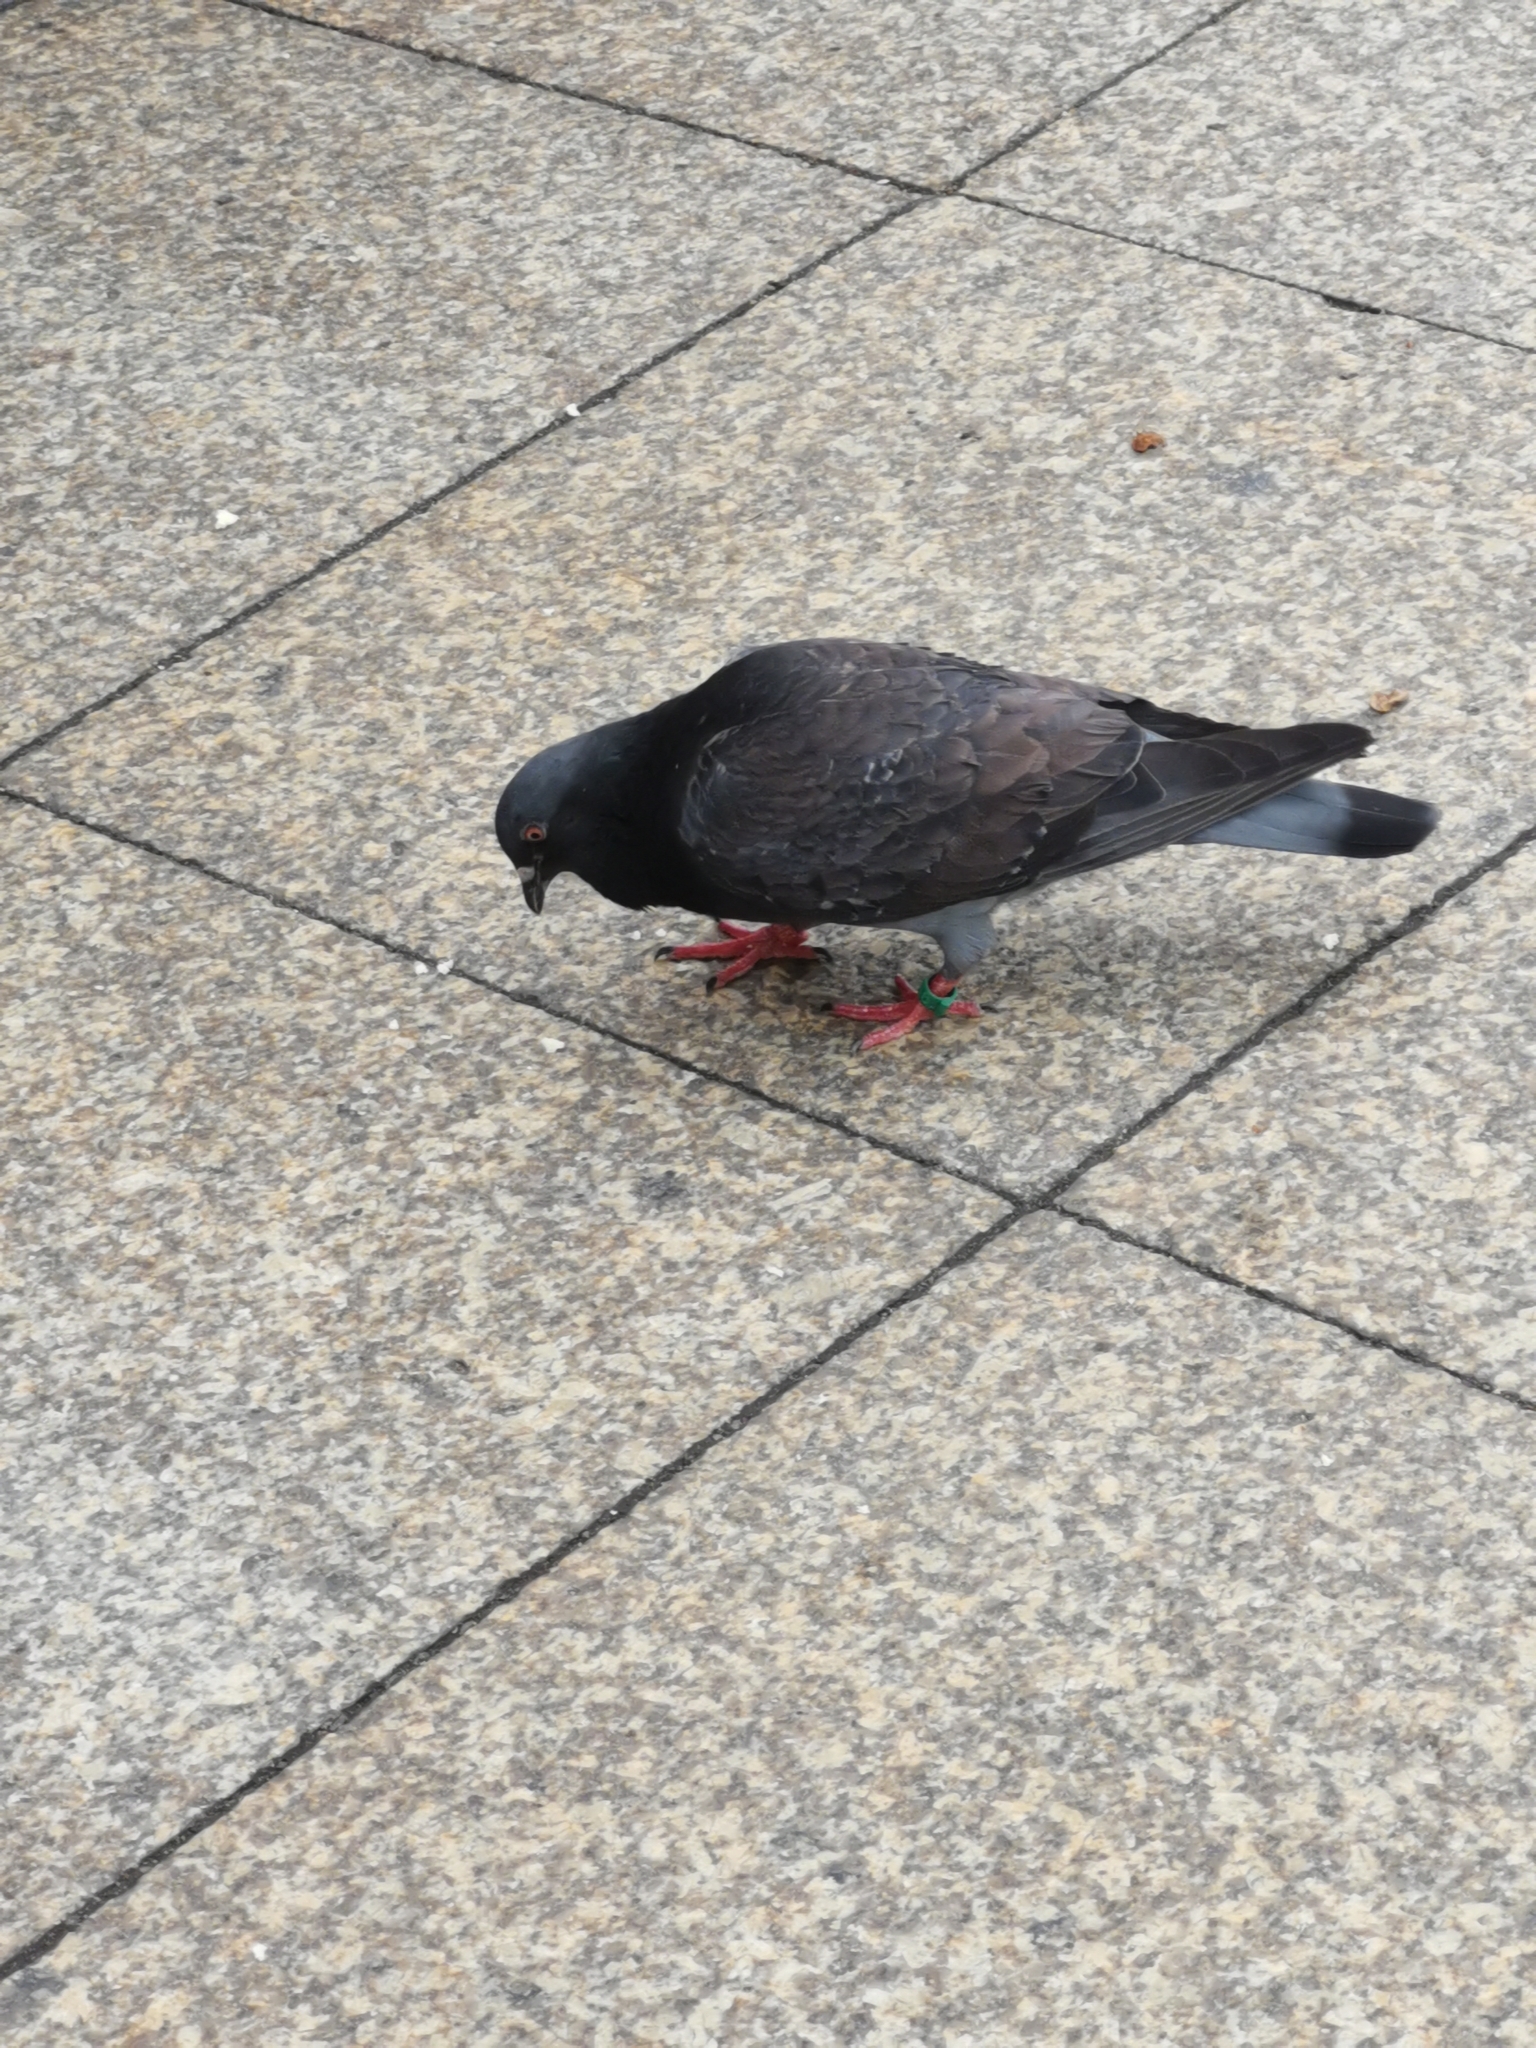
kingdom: Animalia
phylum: Chordata
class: Aves
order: Columbiformes
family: Columbidae
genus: Columba
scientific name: Columba livia
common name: Rock pigeon
